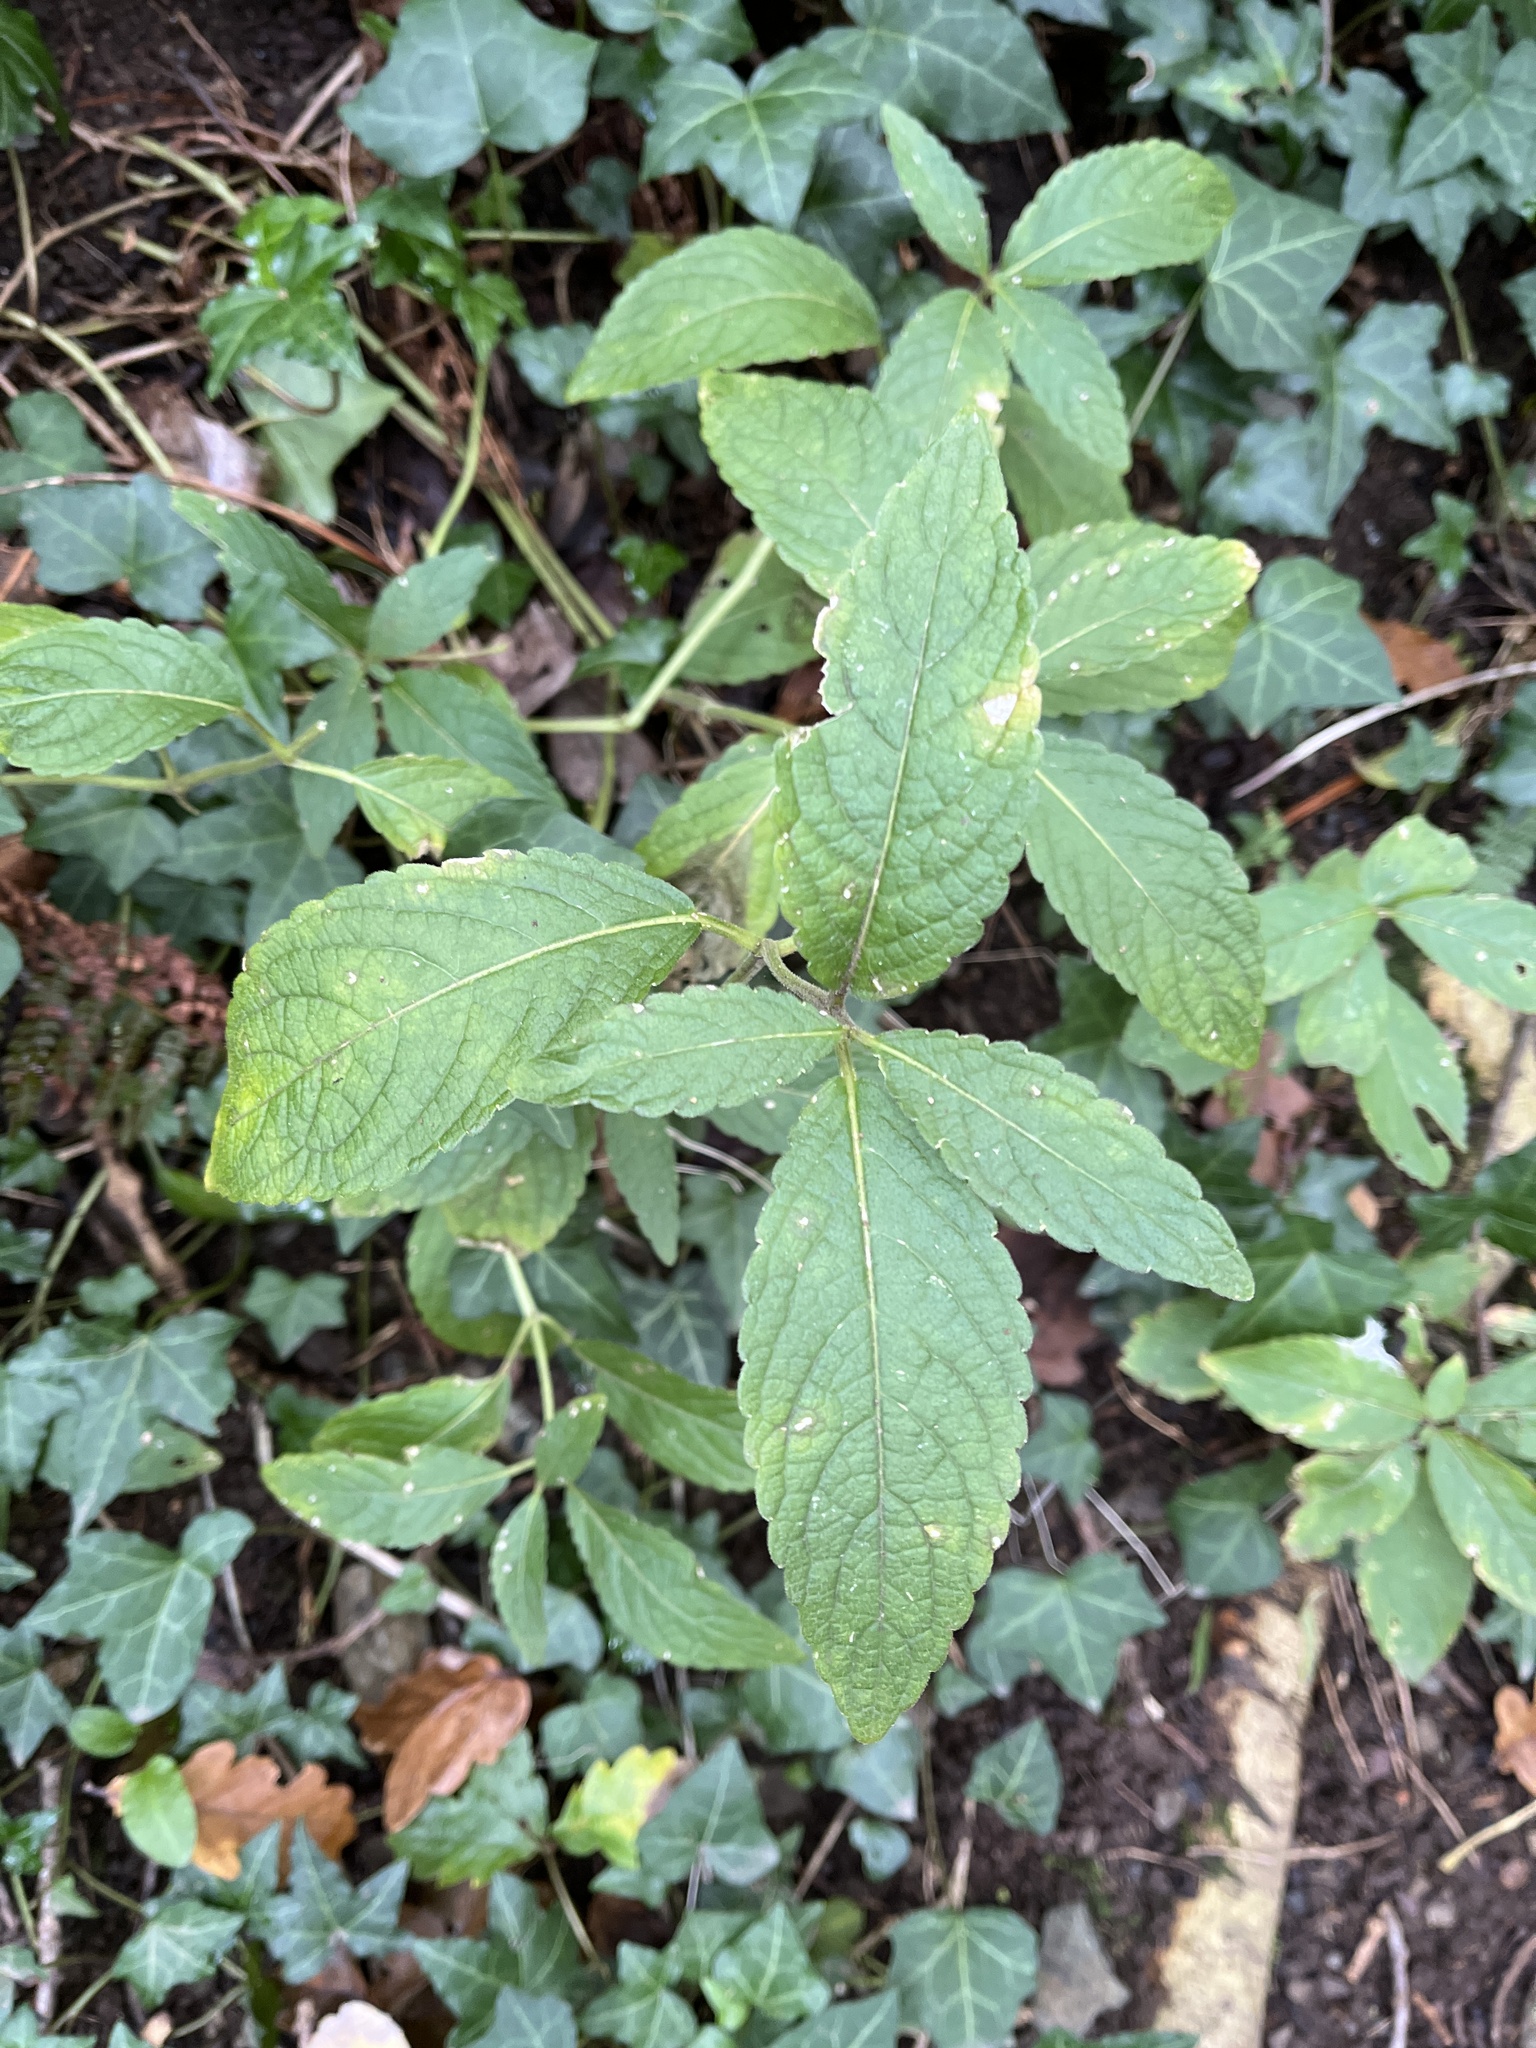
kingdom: Plantae
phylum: Tracheophyta
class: Magnoliopsida
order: Malpighiales
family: Euphorbiaceae
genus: Mercurialis
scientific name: Mercurialis perennis
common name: Dog mercury
